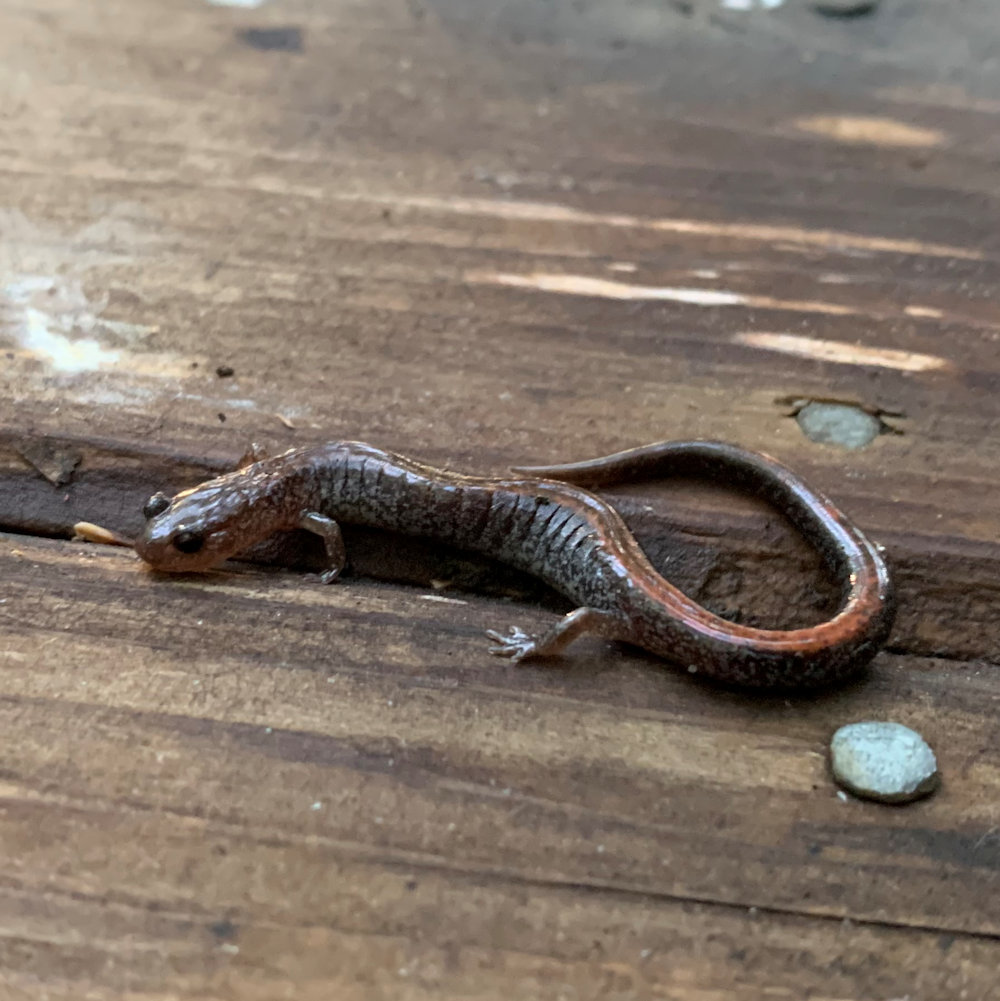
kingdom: Animalia
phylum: Chordata
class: Amphibia
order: Caudata
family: Plethodontidae
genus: Plethodon
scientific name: Plethodon cinereus
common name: Redback salamander
